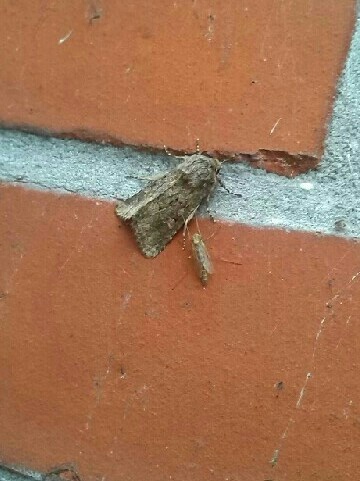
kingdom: Animalia
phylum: Arthropoda
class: Insecta
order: Lepidoptera
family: Noctuidae
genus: Luperina
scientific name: Luperina testacea
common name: Flounced rustic
